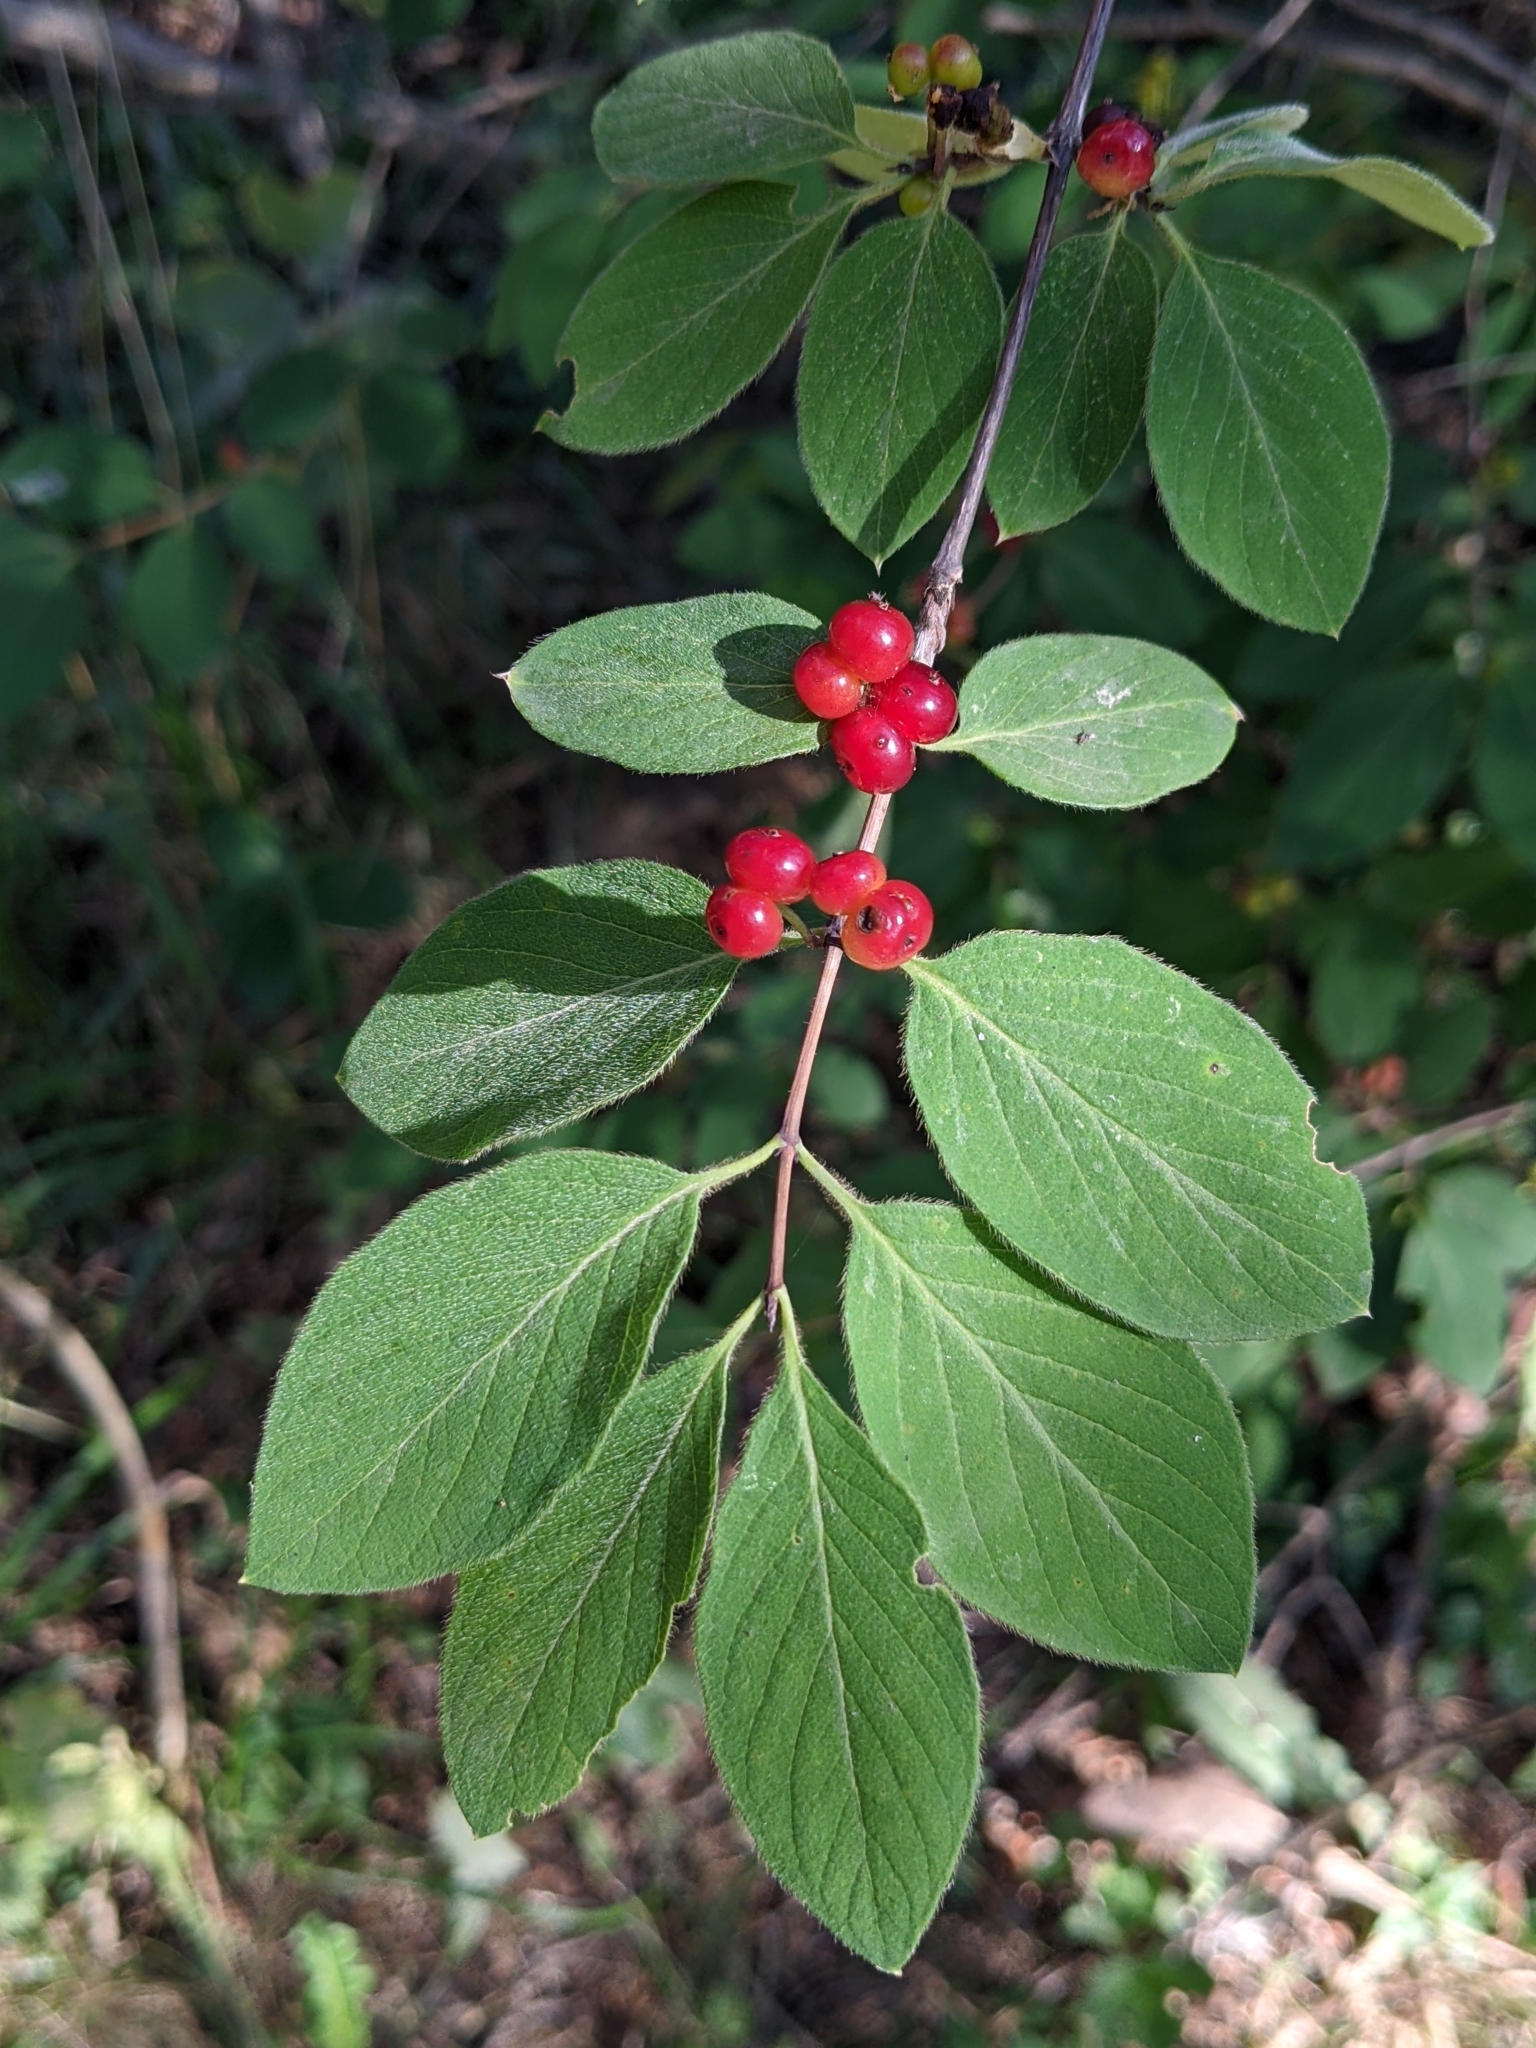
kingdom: Plantae
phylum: Tracheophyta
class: Magnoliopsida
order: Dipsacales
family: Caprifoliaceae
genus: Lonicera
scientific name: Lonicera xylosteum
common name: Fly honeysuckle
